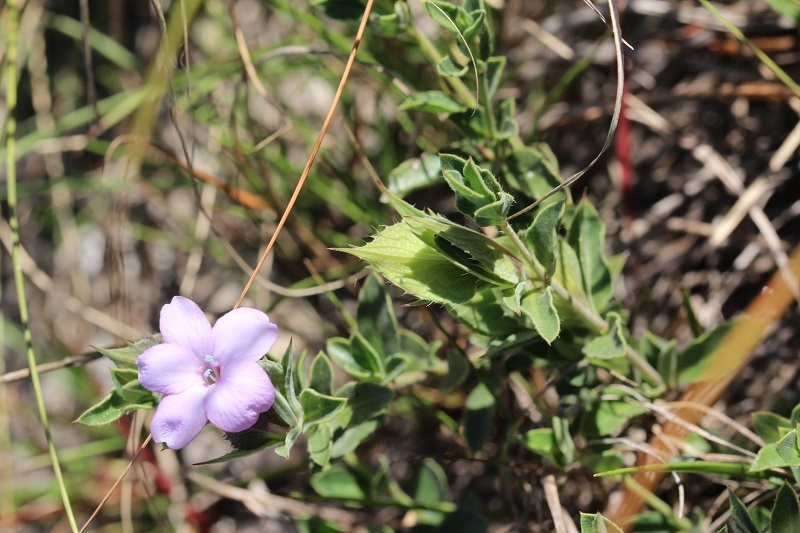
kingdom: Plantae
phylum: Tracheophyta
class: Magnoliopsida
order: Lamiales
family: Acanthaceae
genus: Barleria
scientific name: Barleria pungens
